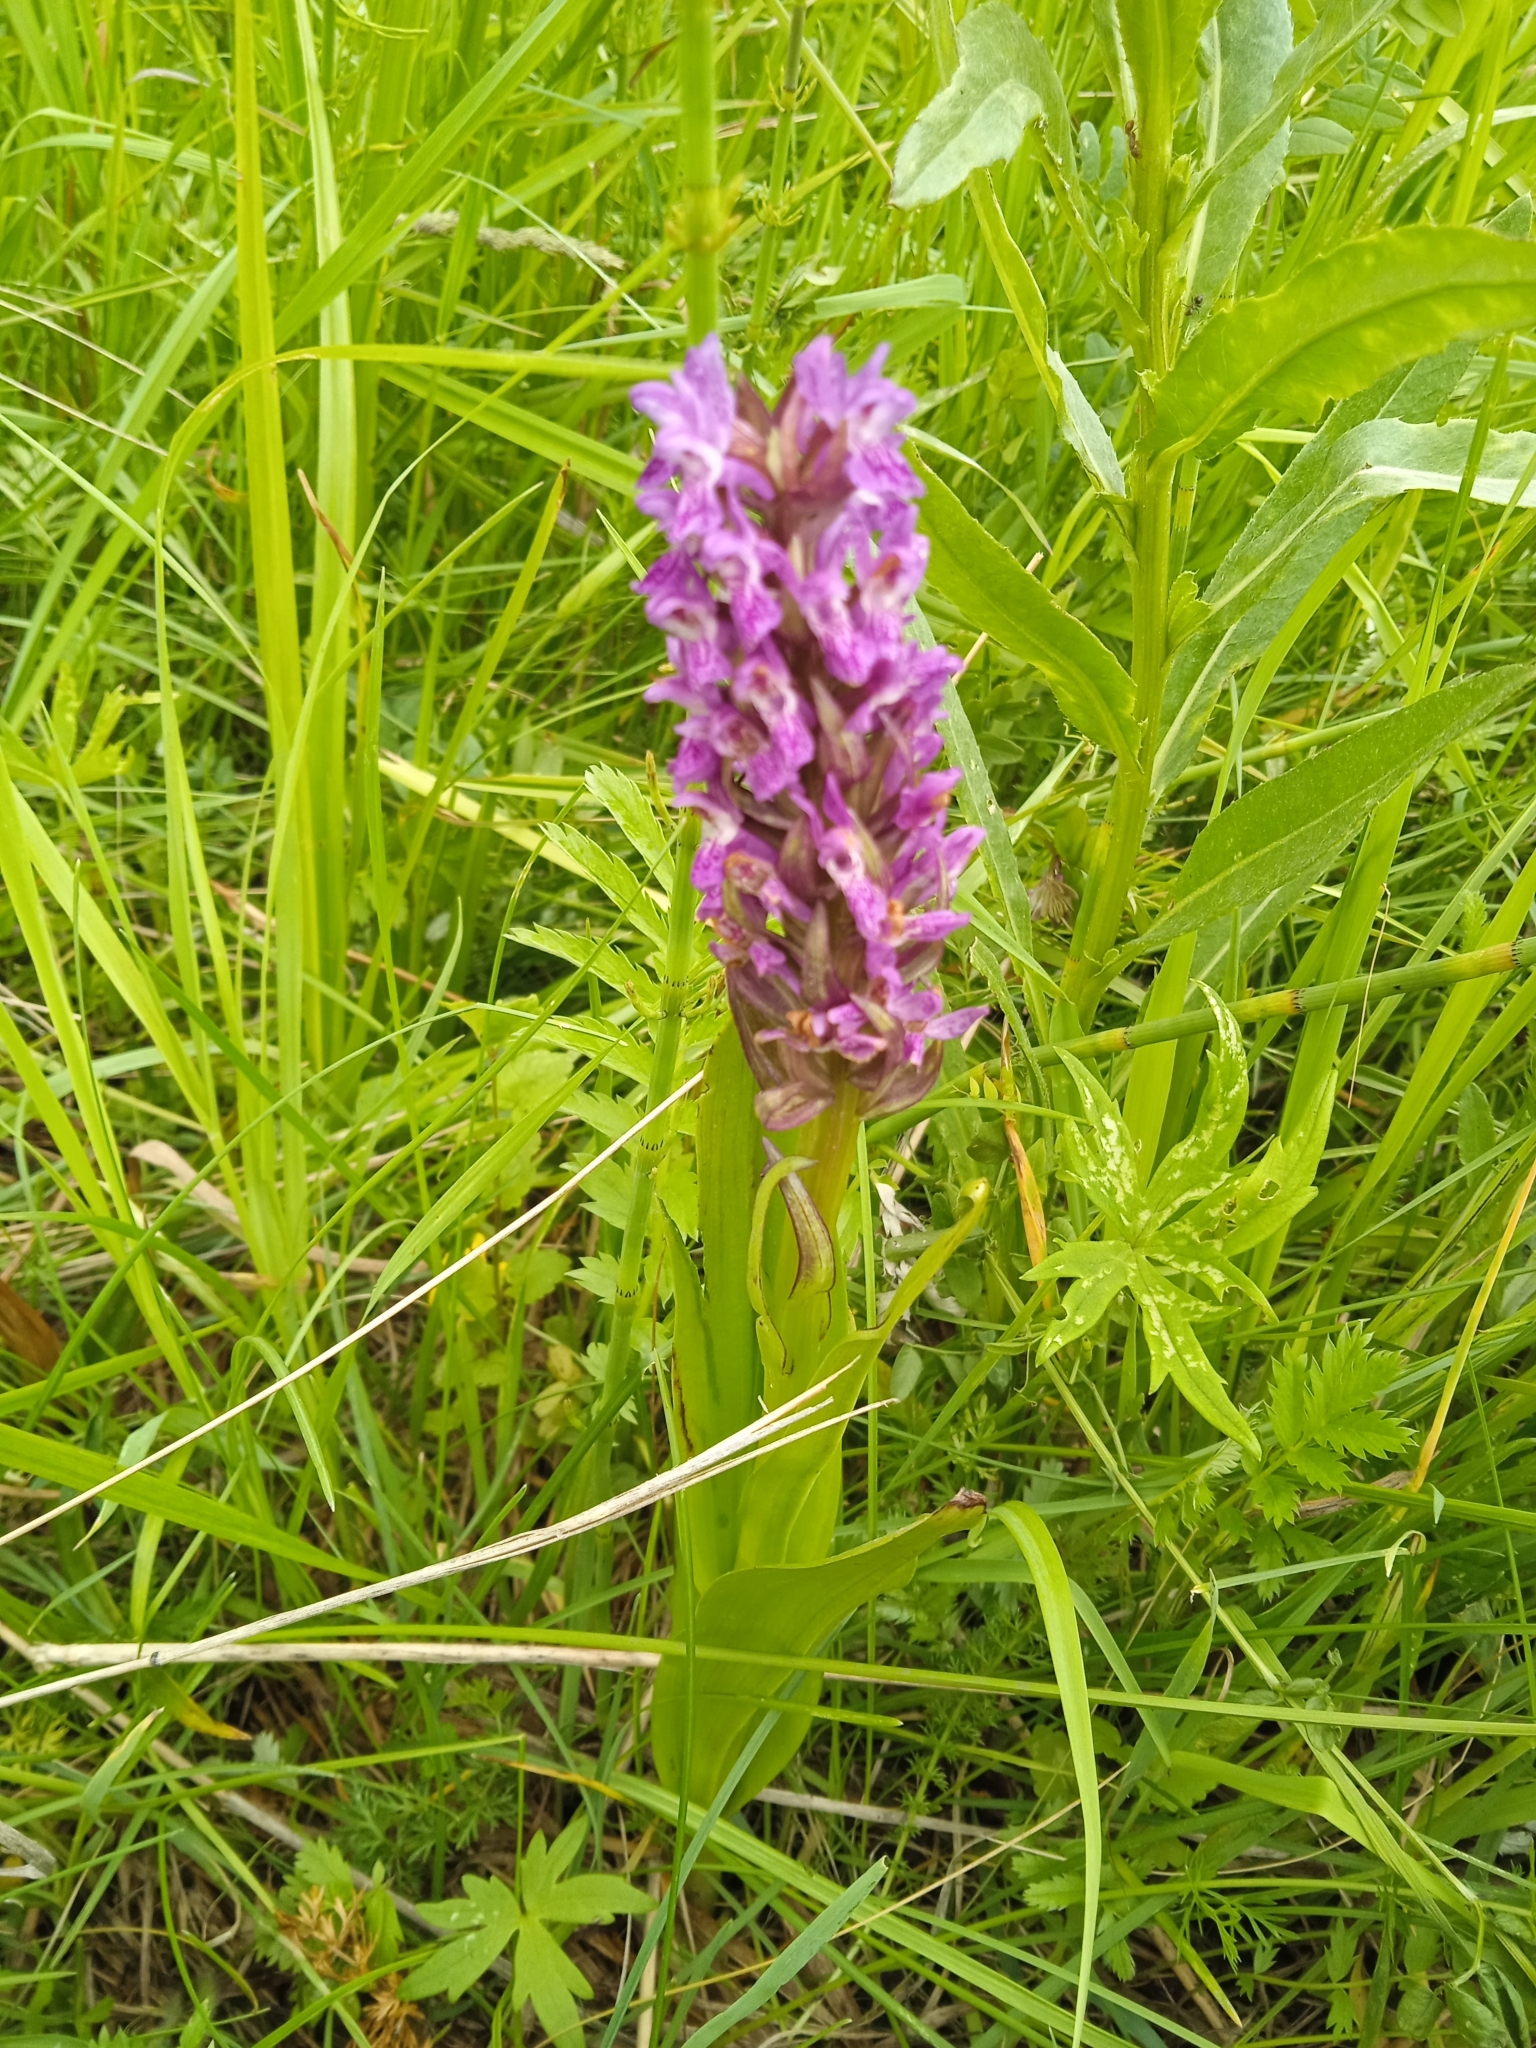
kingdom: Plantae
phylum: Tracheophyta
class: Liliopsida
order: Asparagales
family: Orchidaceae
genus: Dactylorhiza
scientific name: Dactylorhiza incarnata
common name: Early marsh-orchid
